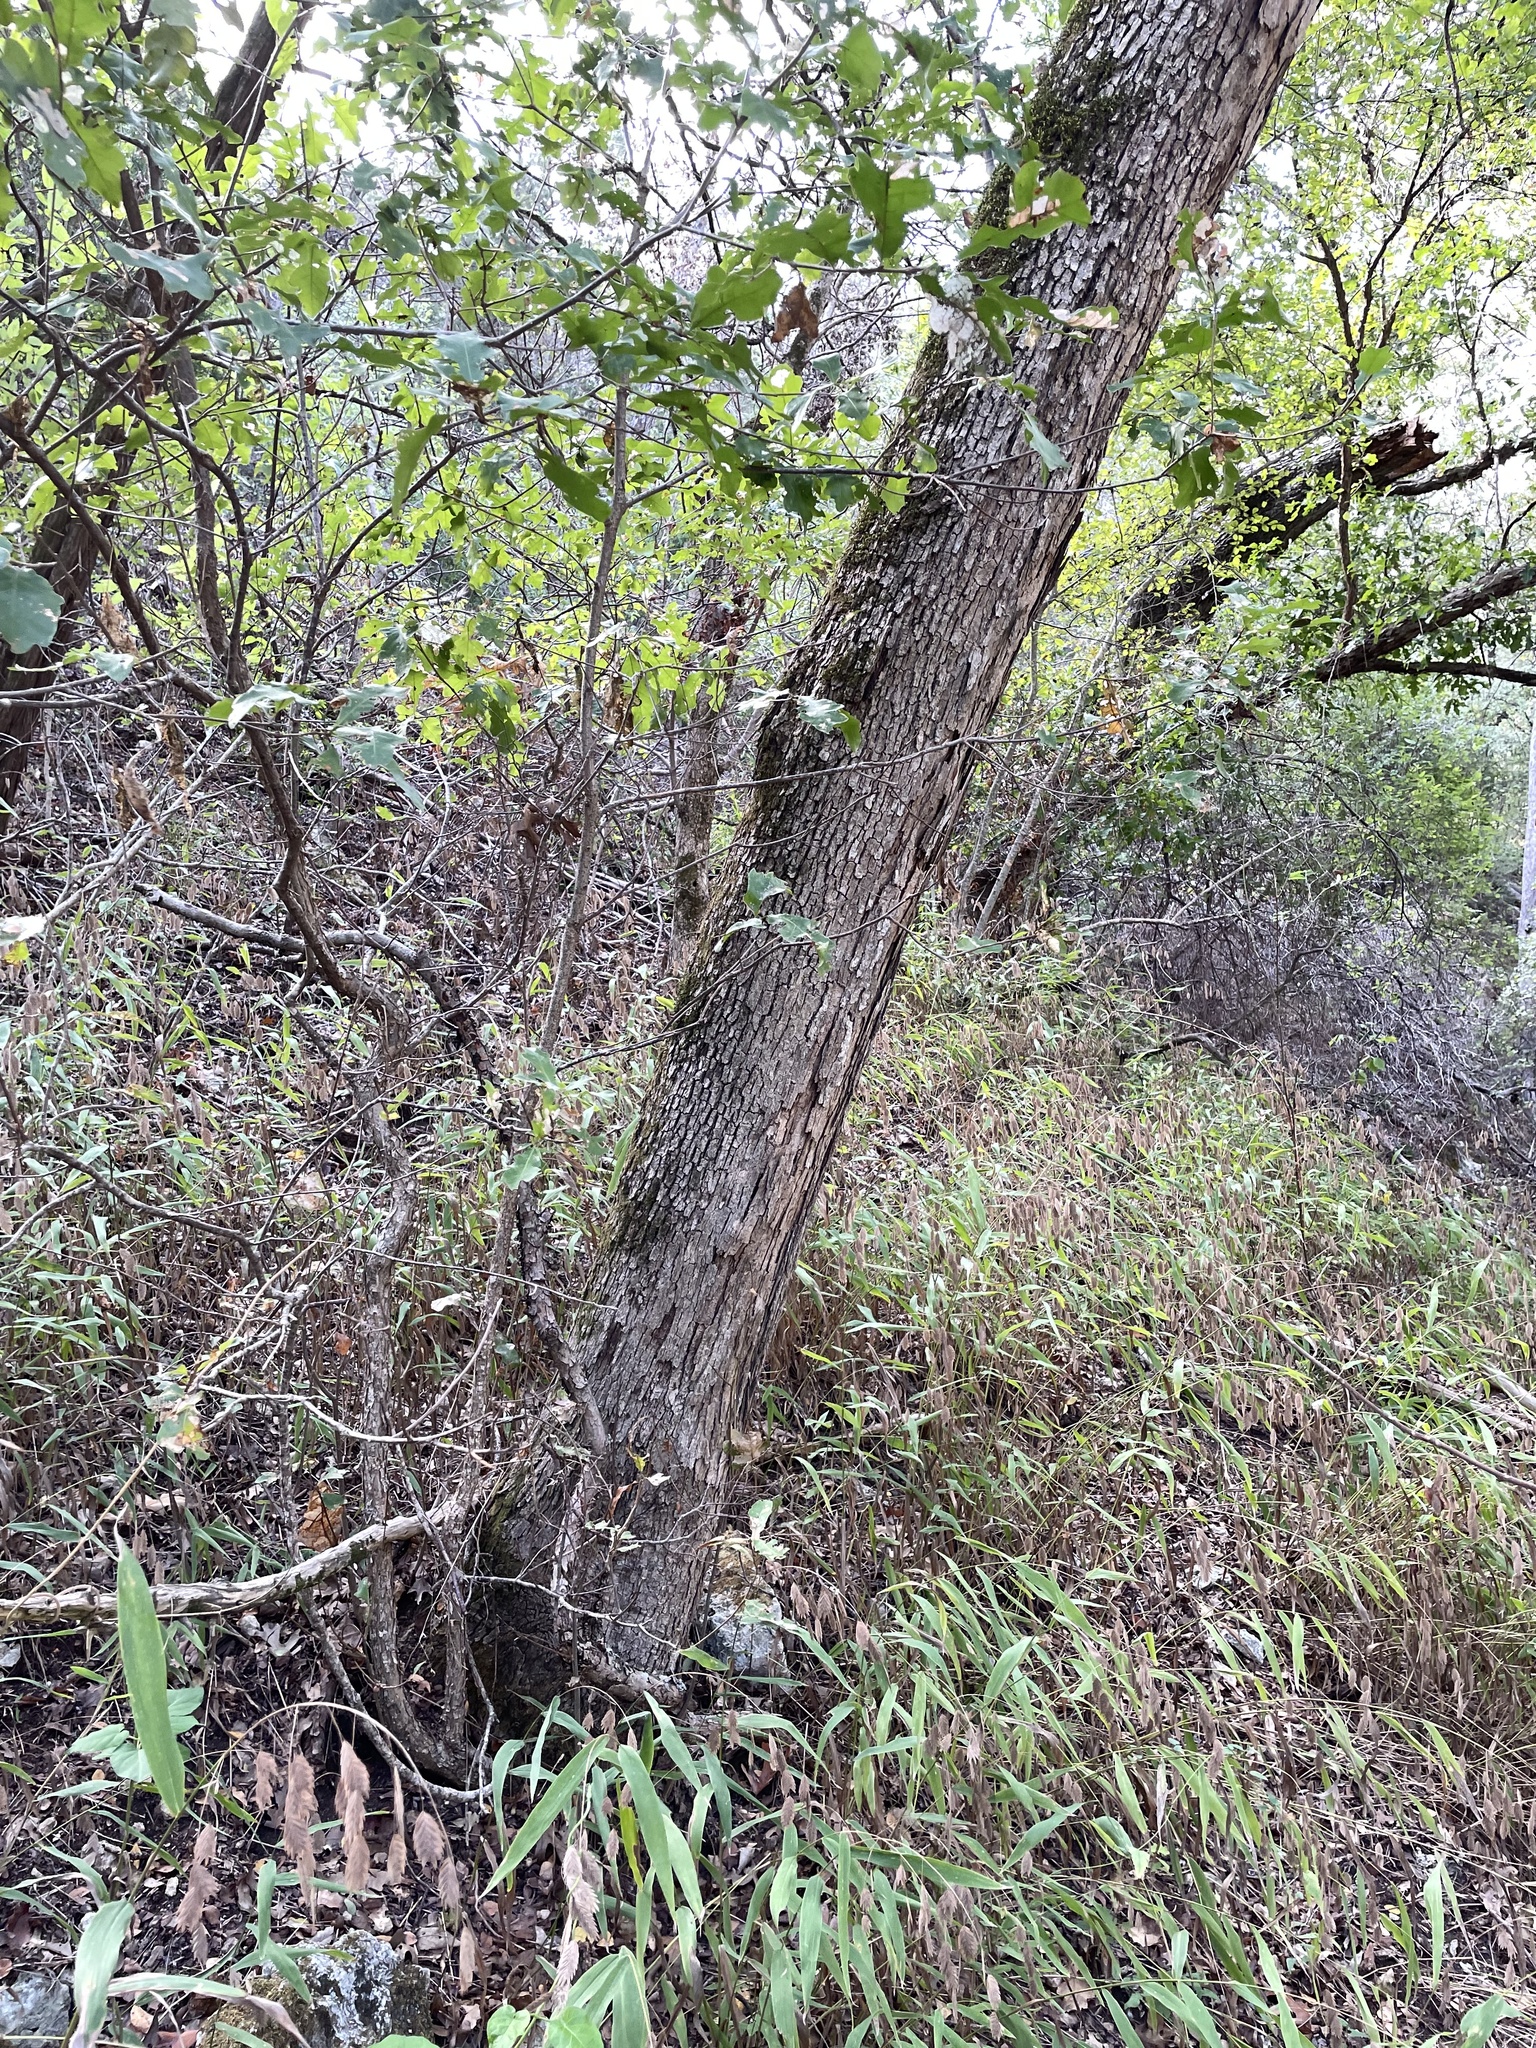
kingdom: Plantae
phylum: Tracheophyta
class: Magnoliopsida
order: Fagales
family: Fagaceae
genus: Quercus
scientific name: Quercus sinuata
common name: Durand oak
